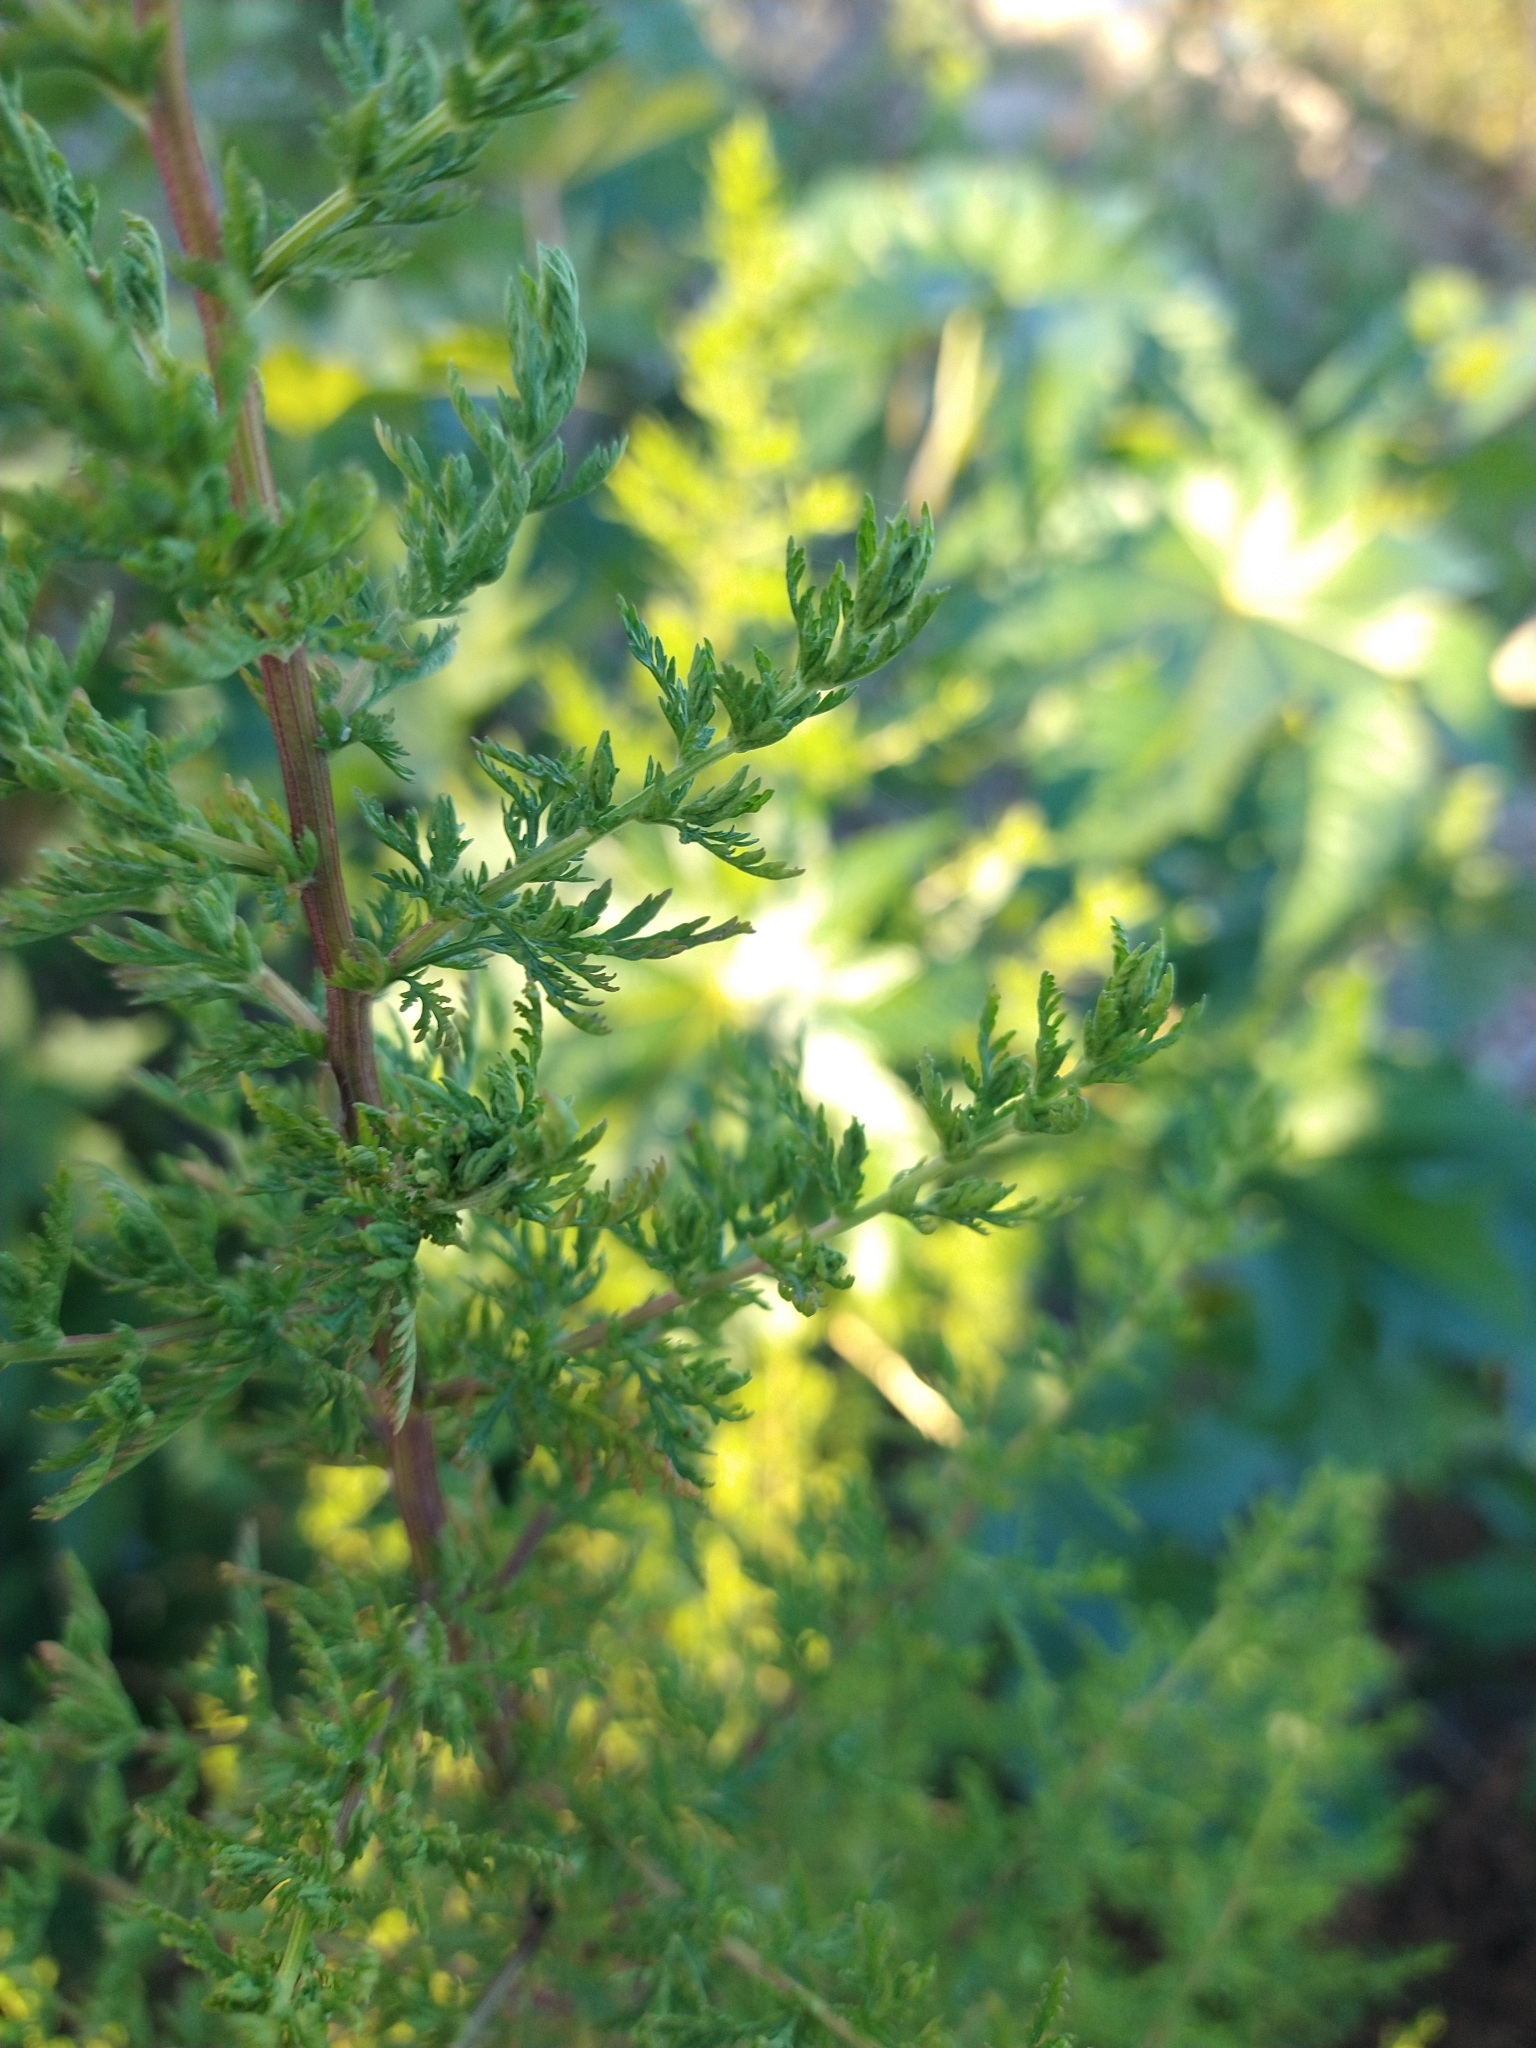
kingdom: Plantae
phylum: Tracheophyta
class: Magnoliopsida
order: Asterales
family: Asteraceae
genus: Artemisia
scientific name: Artemisia annua
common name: Sweet sagewort
